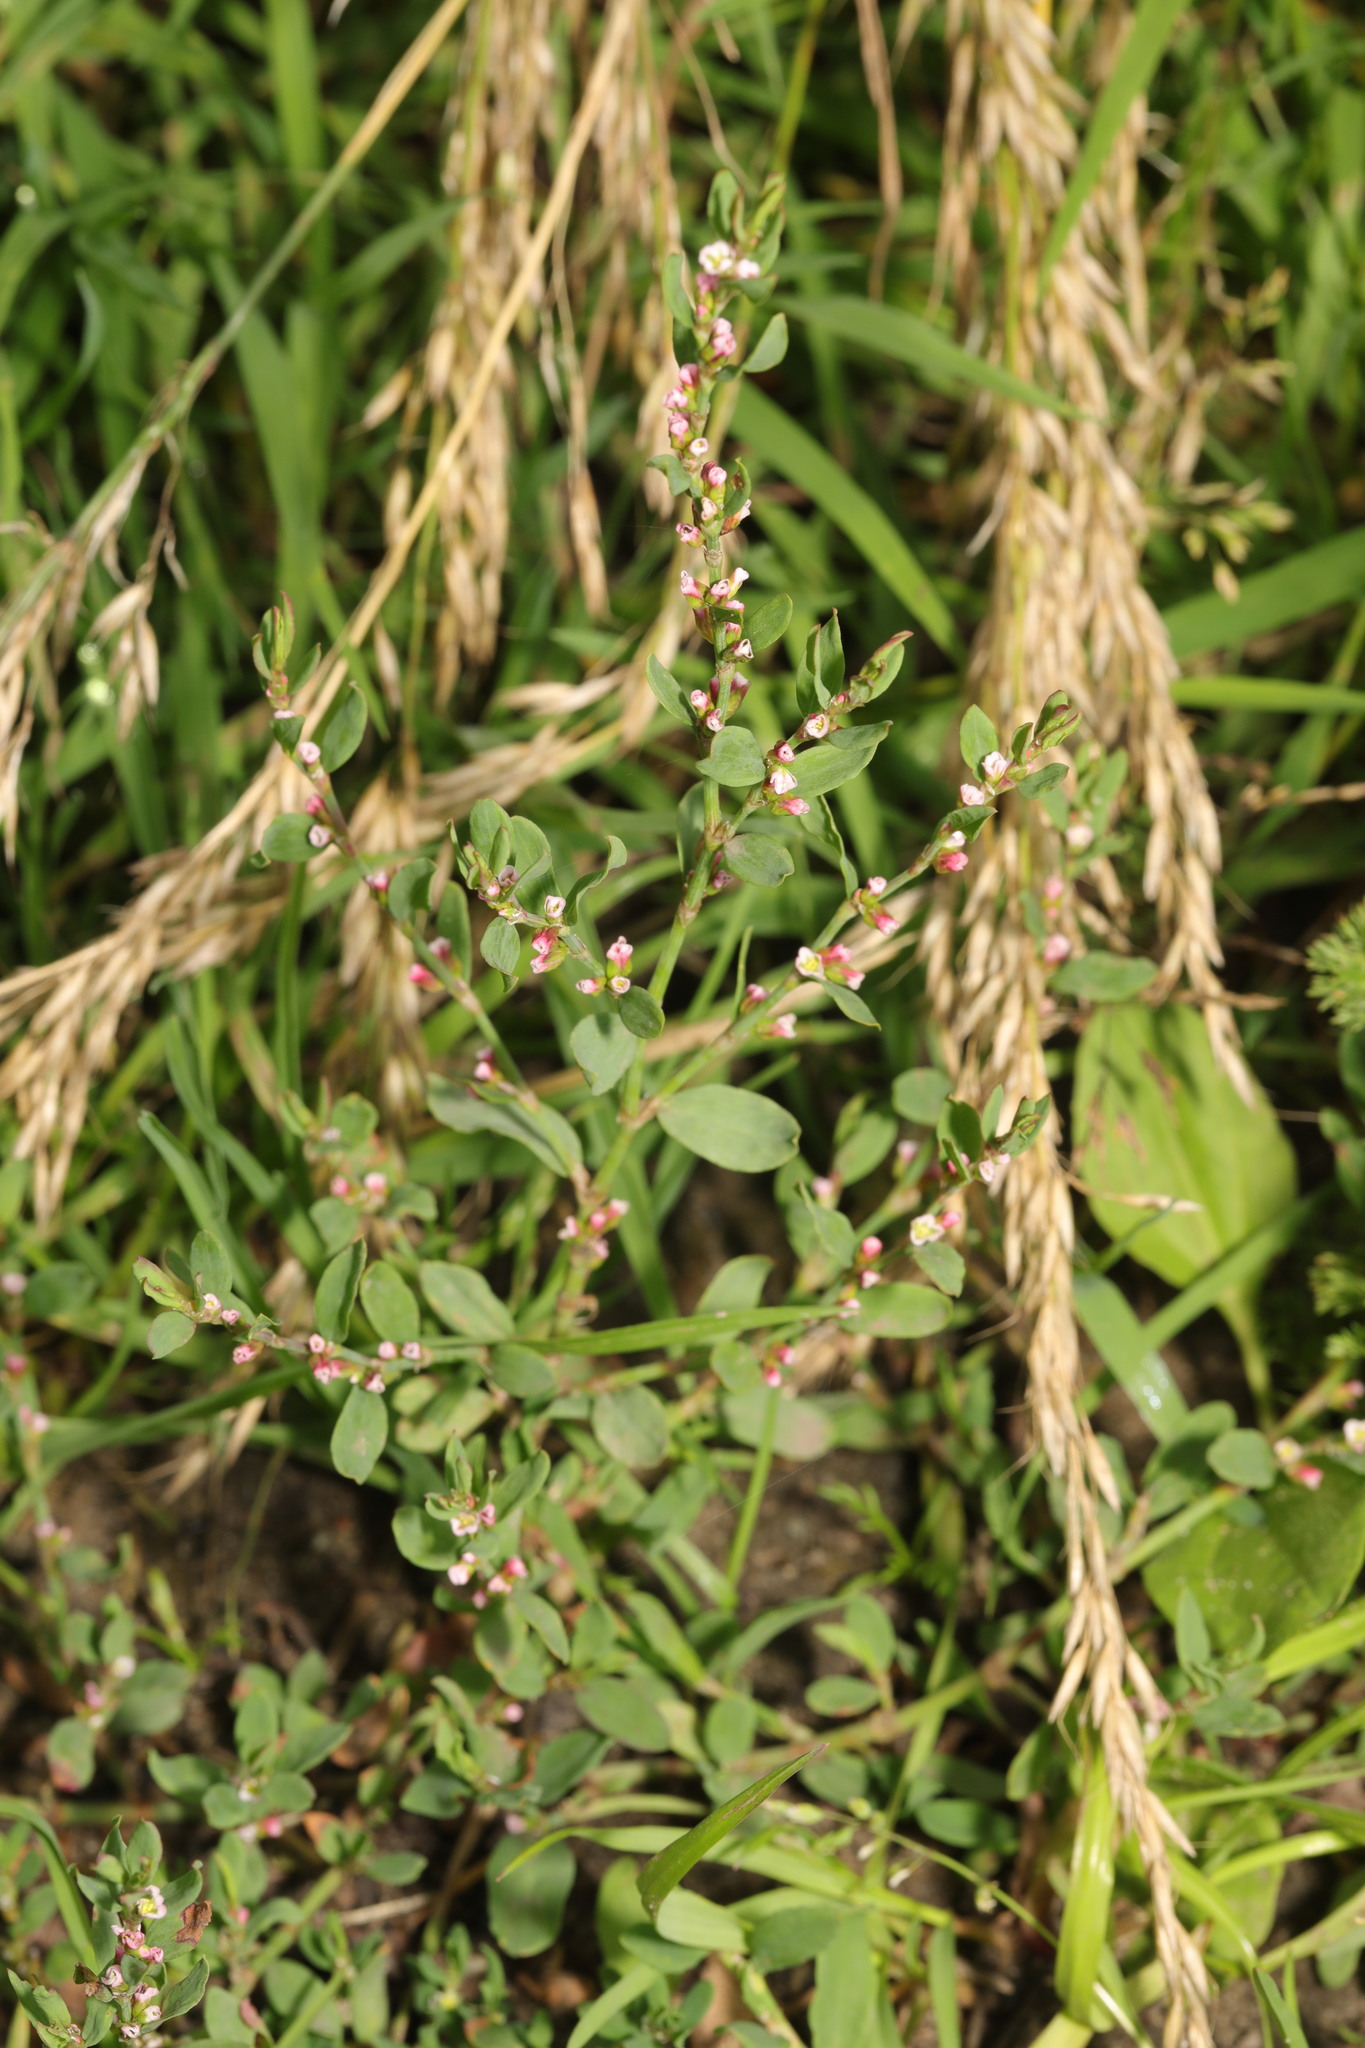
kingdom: Plantae
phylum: Tracheophyta
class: Magnoliopsida
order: Caryophyllales
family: Polygonaceae
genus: Polygonum
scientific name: Polygonum aviculare
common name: Prostrate knotweed
